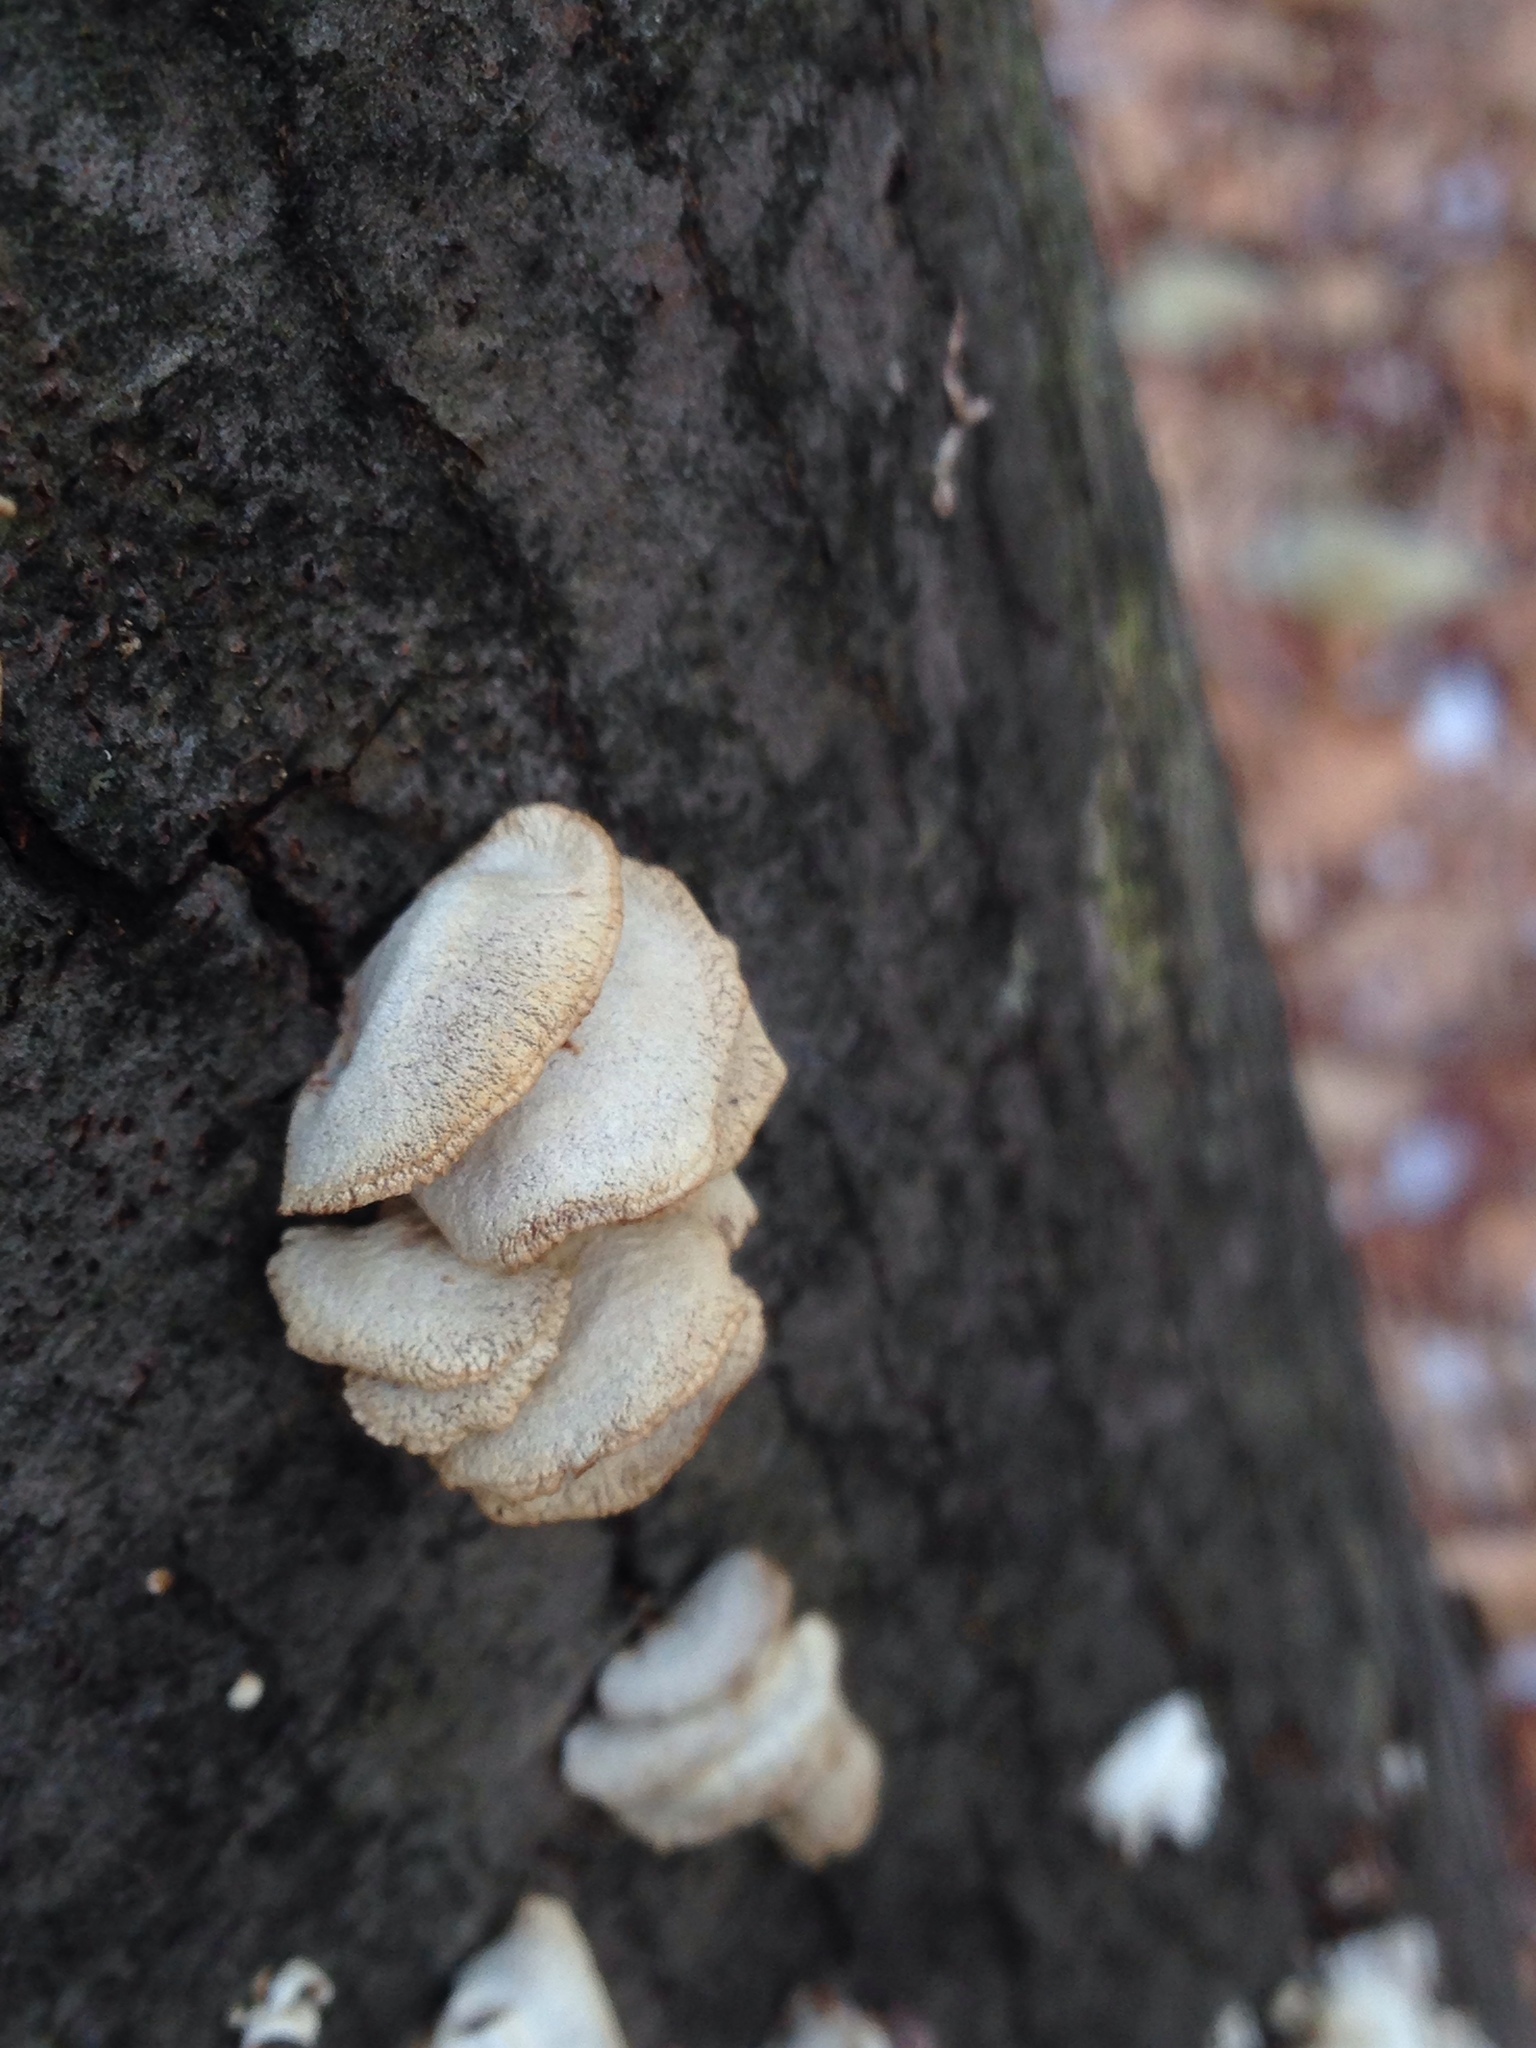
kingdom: Fungi
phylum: Basidiomycota
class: Agaricomycetes
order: Agaricales
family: Mycenaceae
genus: Panellus
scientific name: Panellus stipticus
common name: Bitter oysterling
